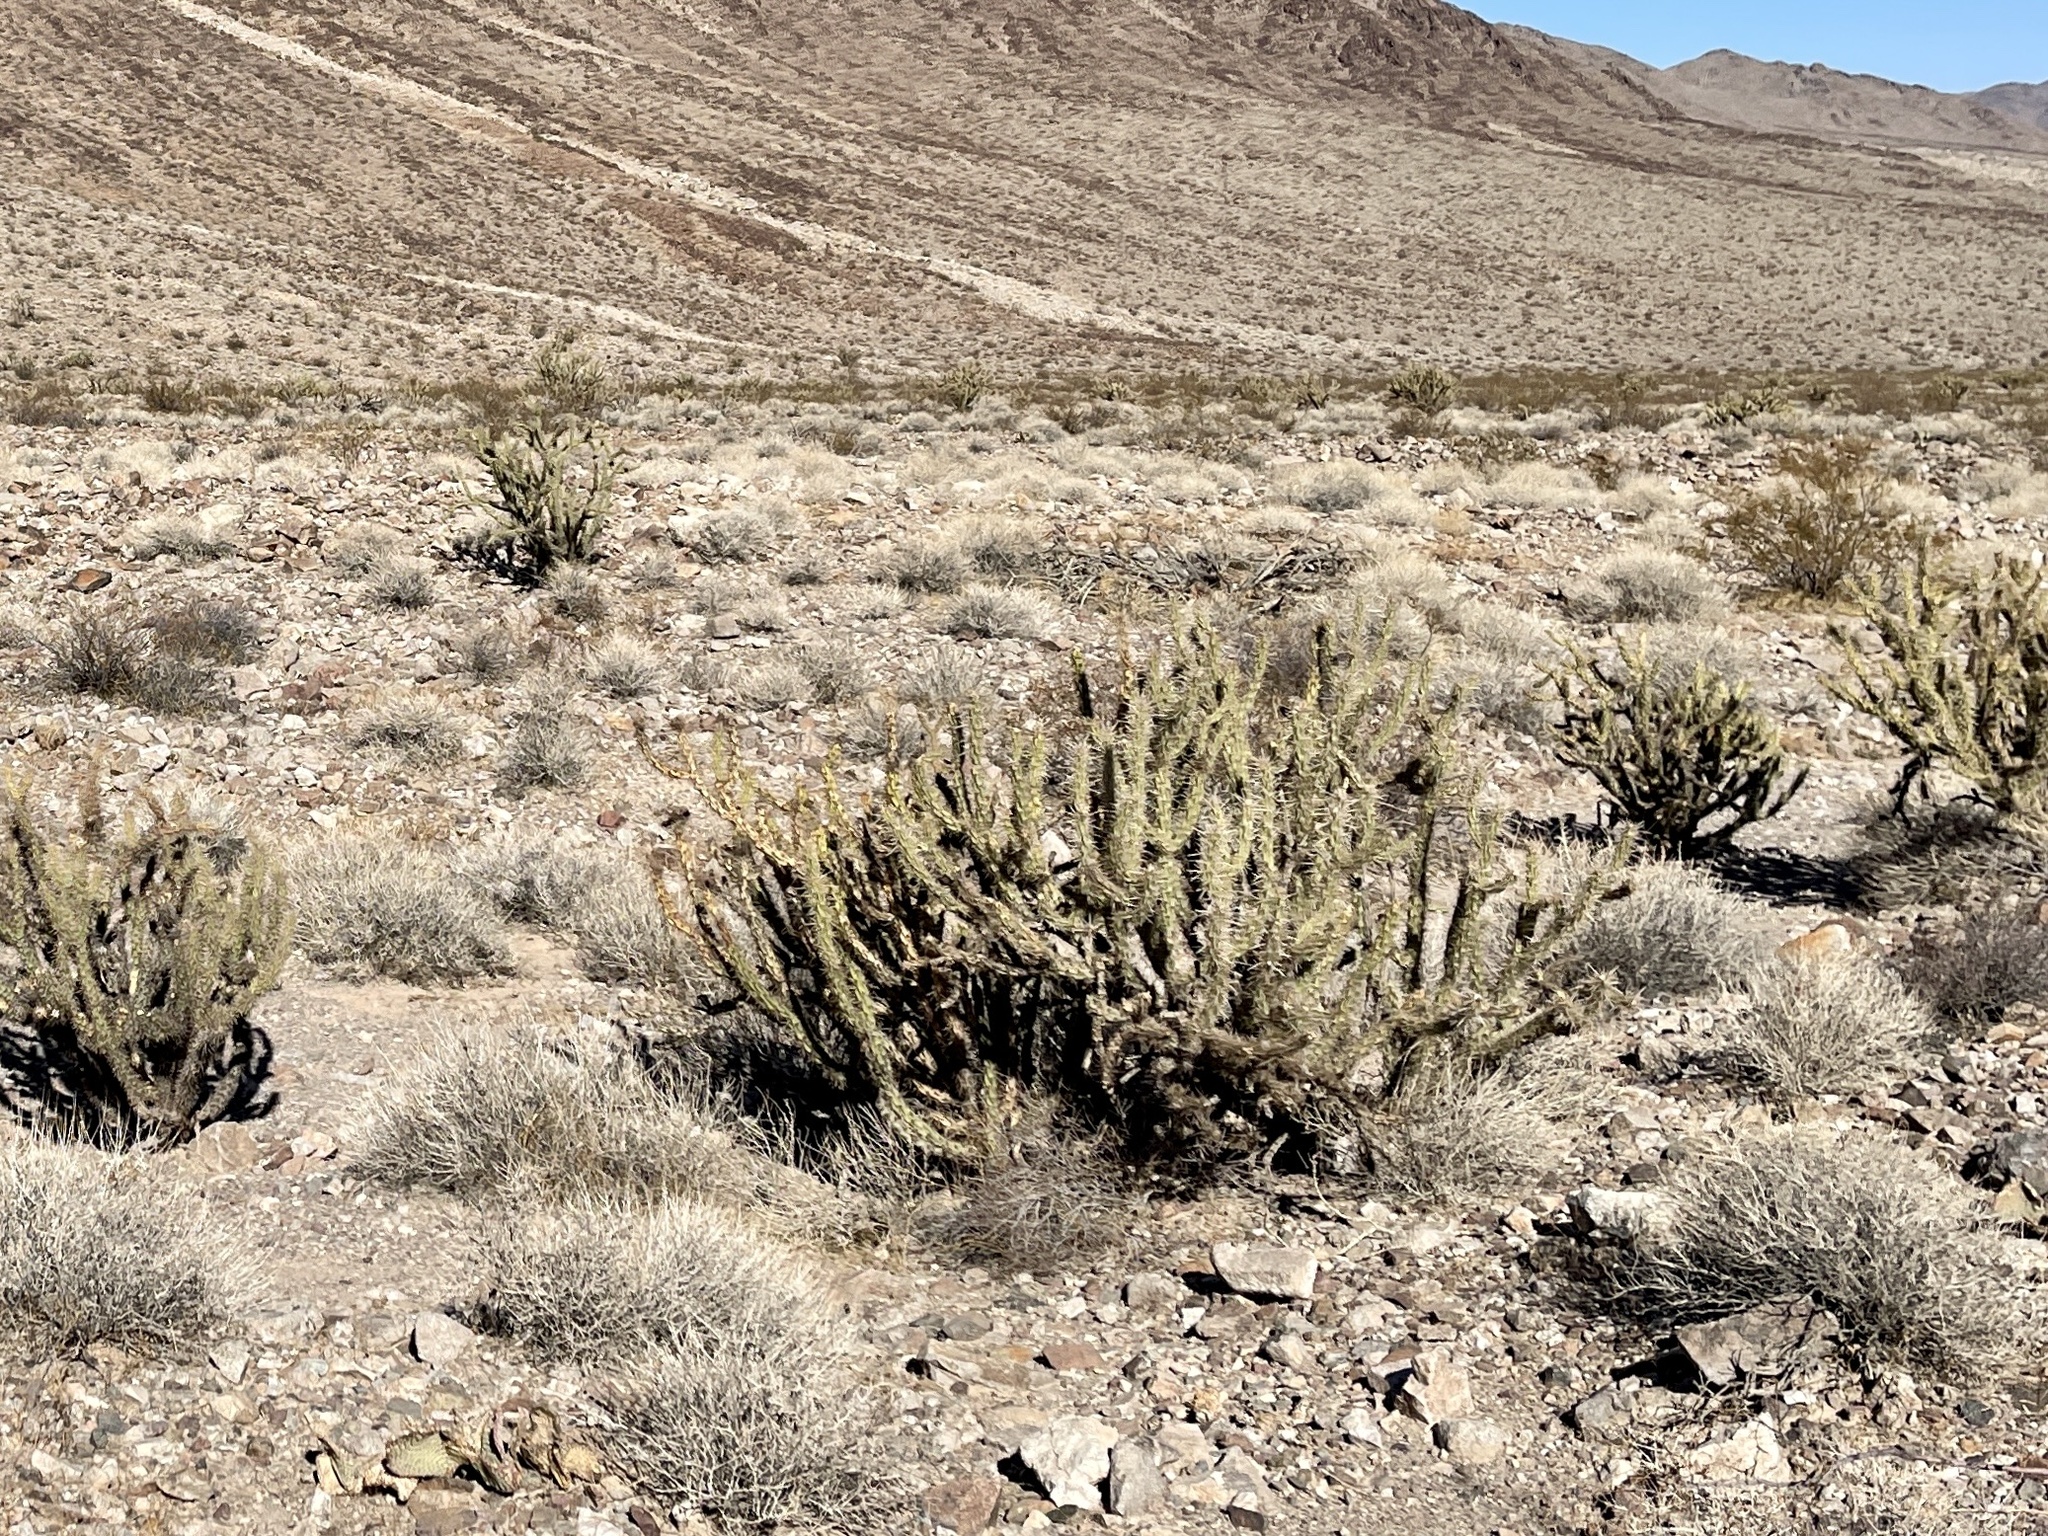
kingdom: Plantae
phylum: Tracheophyta
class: Magnoliopsida
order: Caryophyllales
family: Cactaceae
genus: Cylindropuntia
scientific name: Cylindropuntia acanthocarpa
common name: Buckhorn cholla
